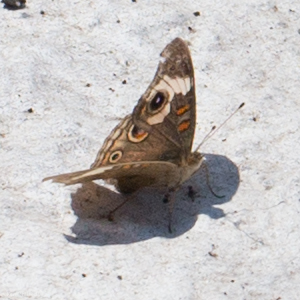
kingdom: Animalia
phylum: Arthropoda
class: Insecta
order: Lepidoptera
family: Nymphalidae
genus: Junonia
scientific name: Junonia grisea
